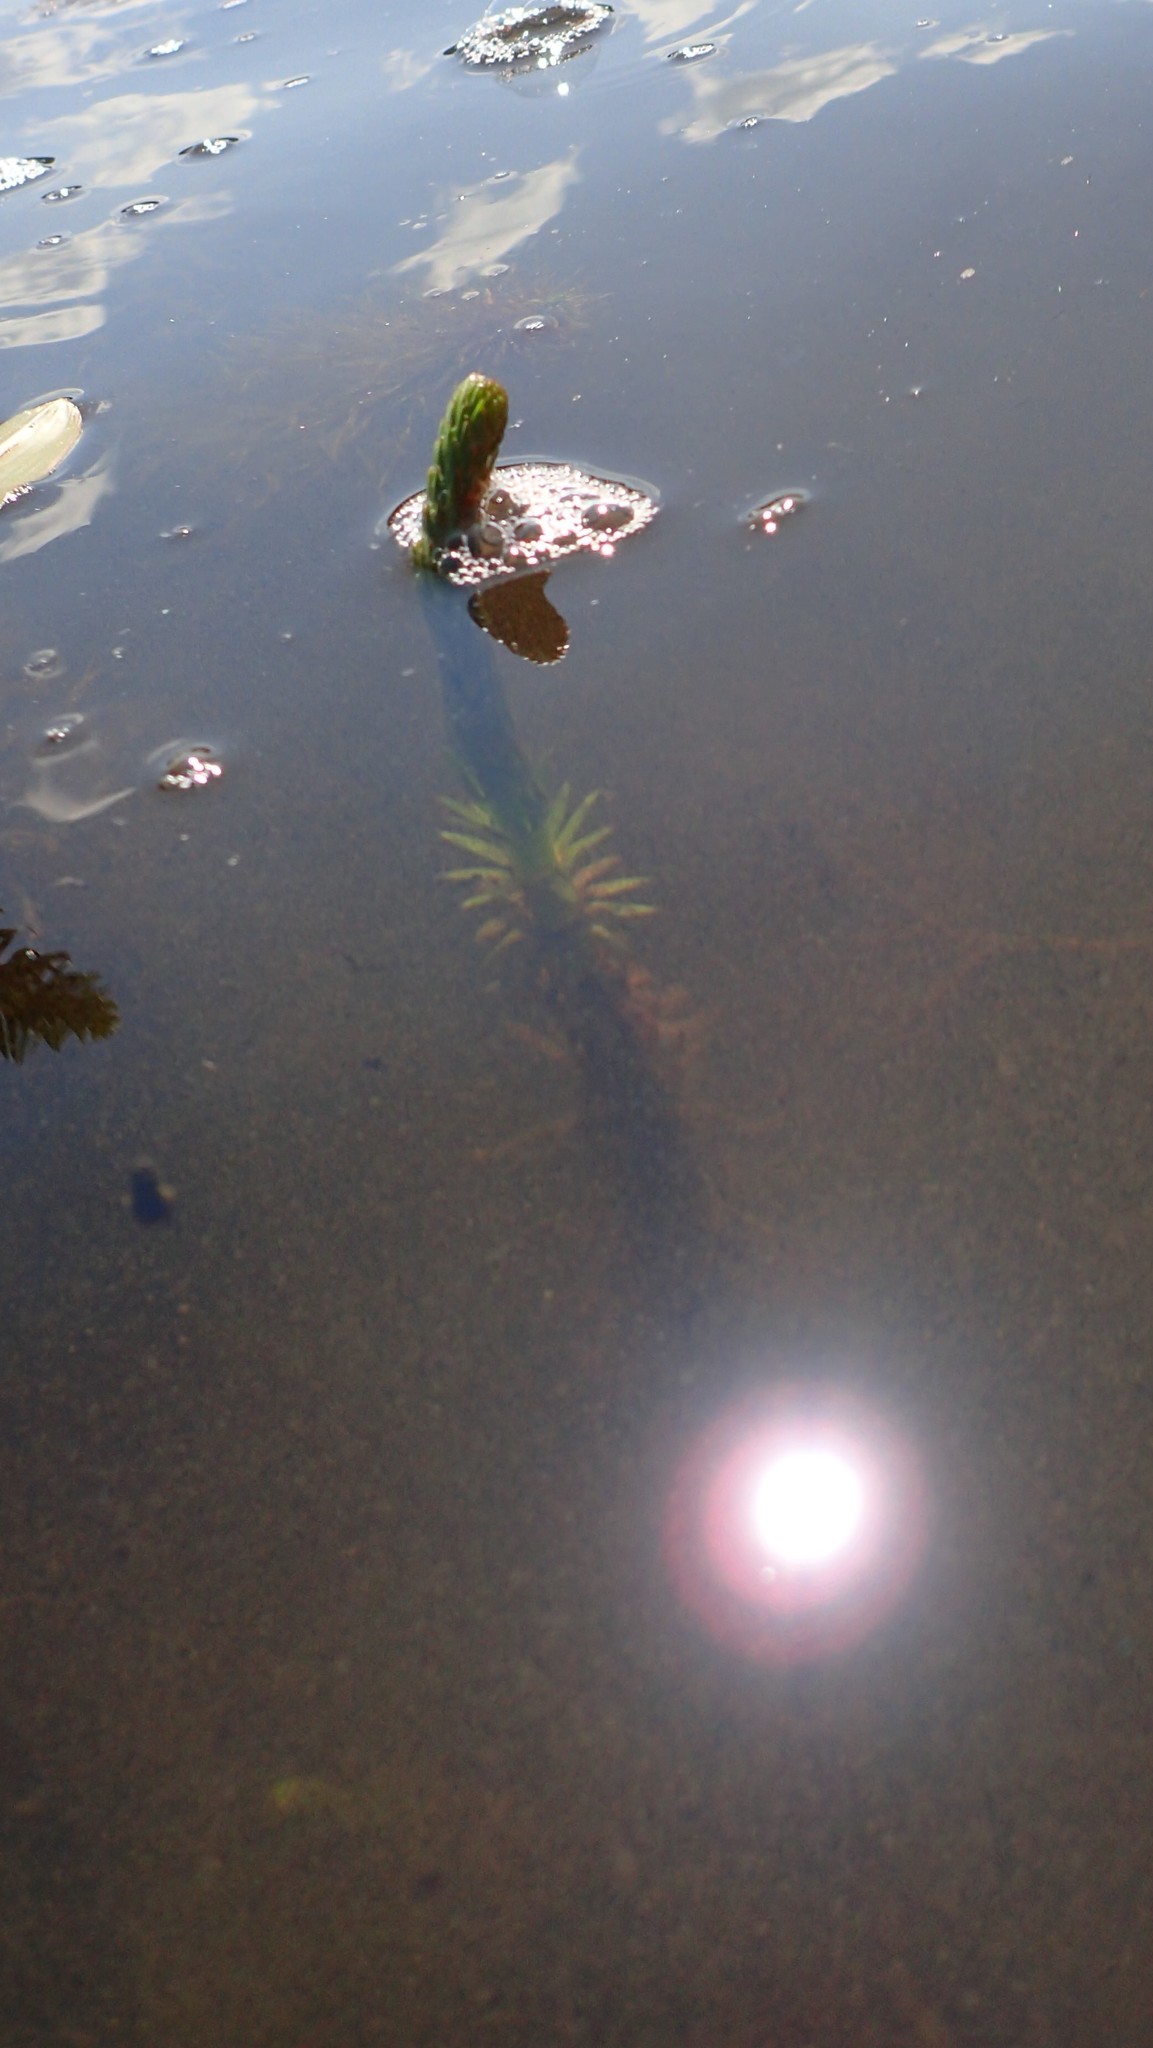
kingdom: Plantae
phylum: Tracheophyta
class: Magnoliopsida
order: Lamiales
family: Plantaginaceae
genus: Hippuris
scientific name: Hippuris vulgaris
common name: Mare's-tail
